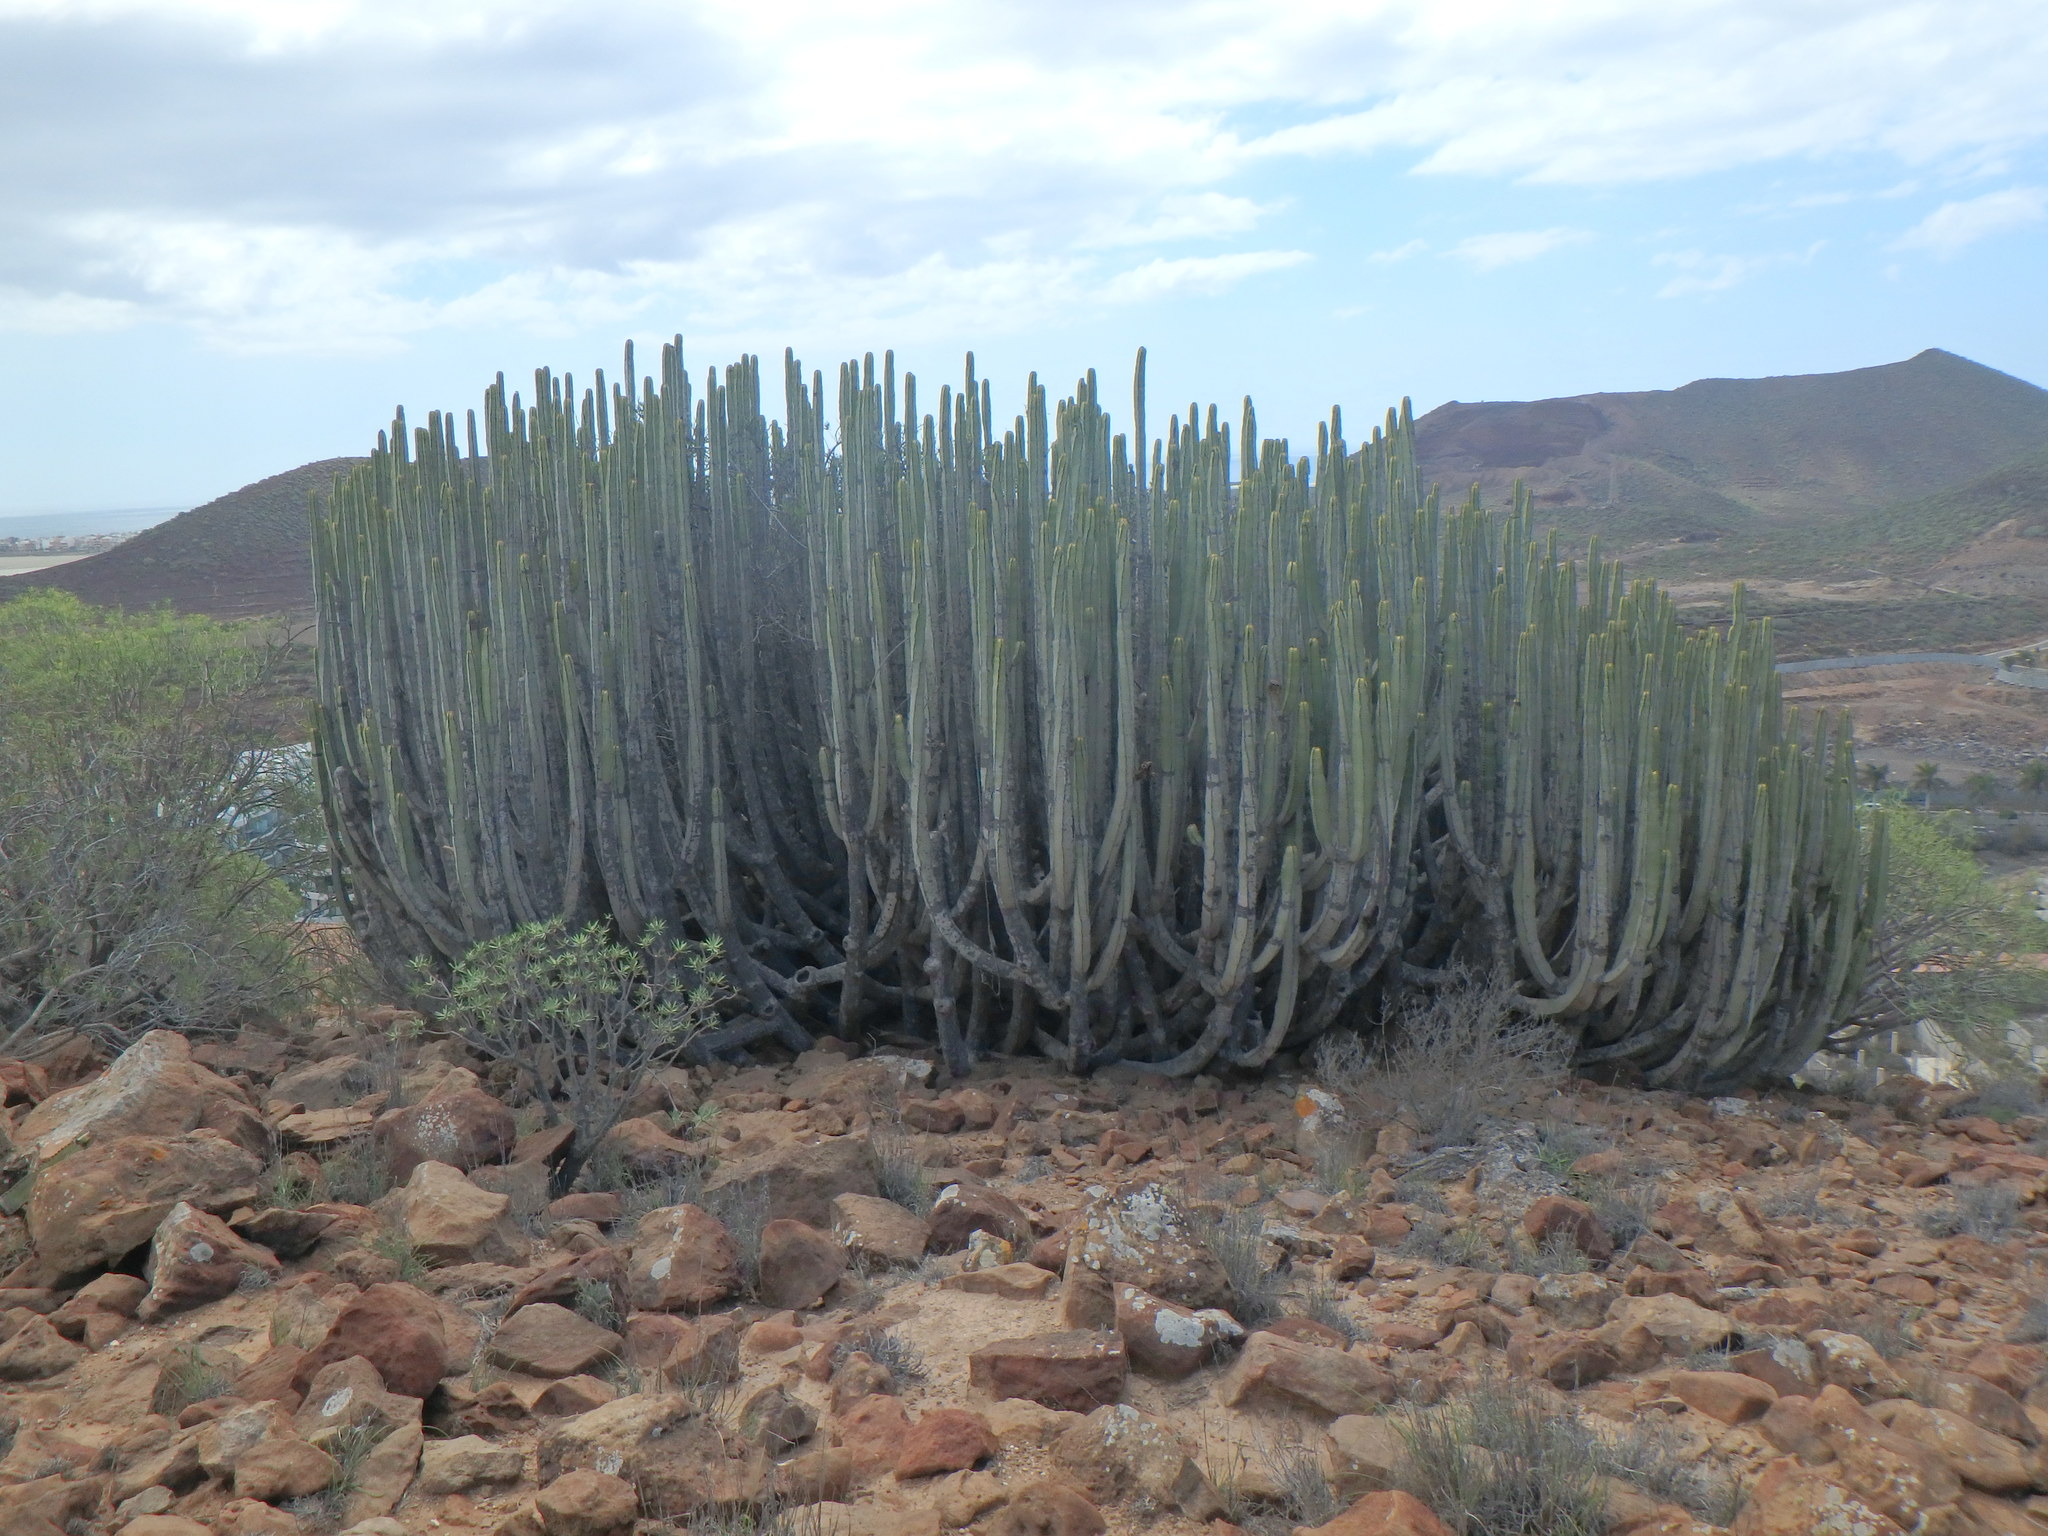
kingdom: Plantae
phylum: Tracheophyta
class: Magnoliopsida
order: Malpighiales
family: Euphorbiaceae
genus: Euphorbia
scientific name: Euphorbia canariensis
